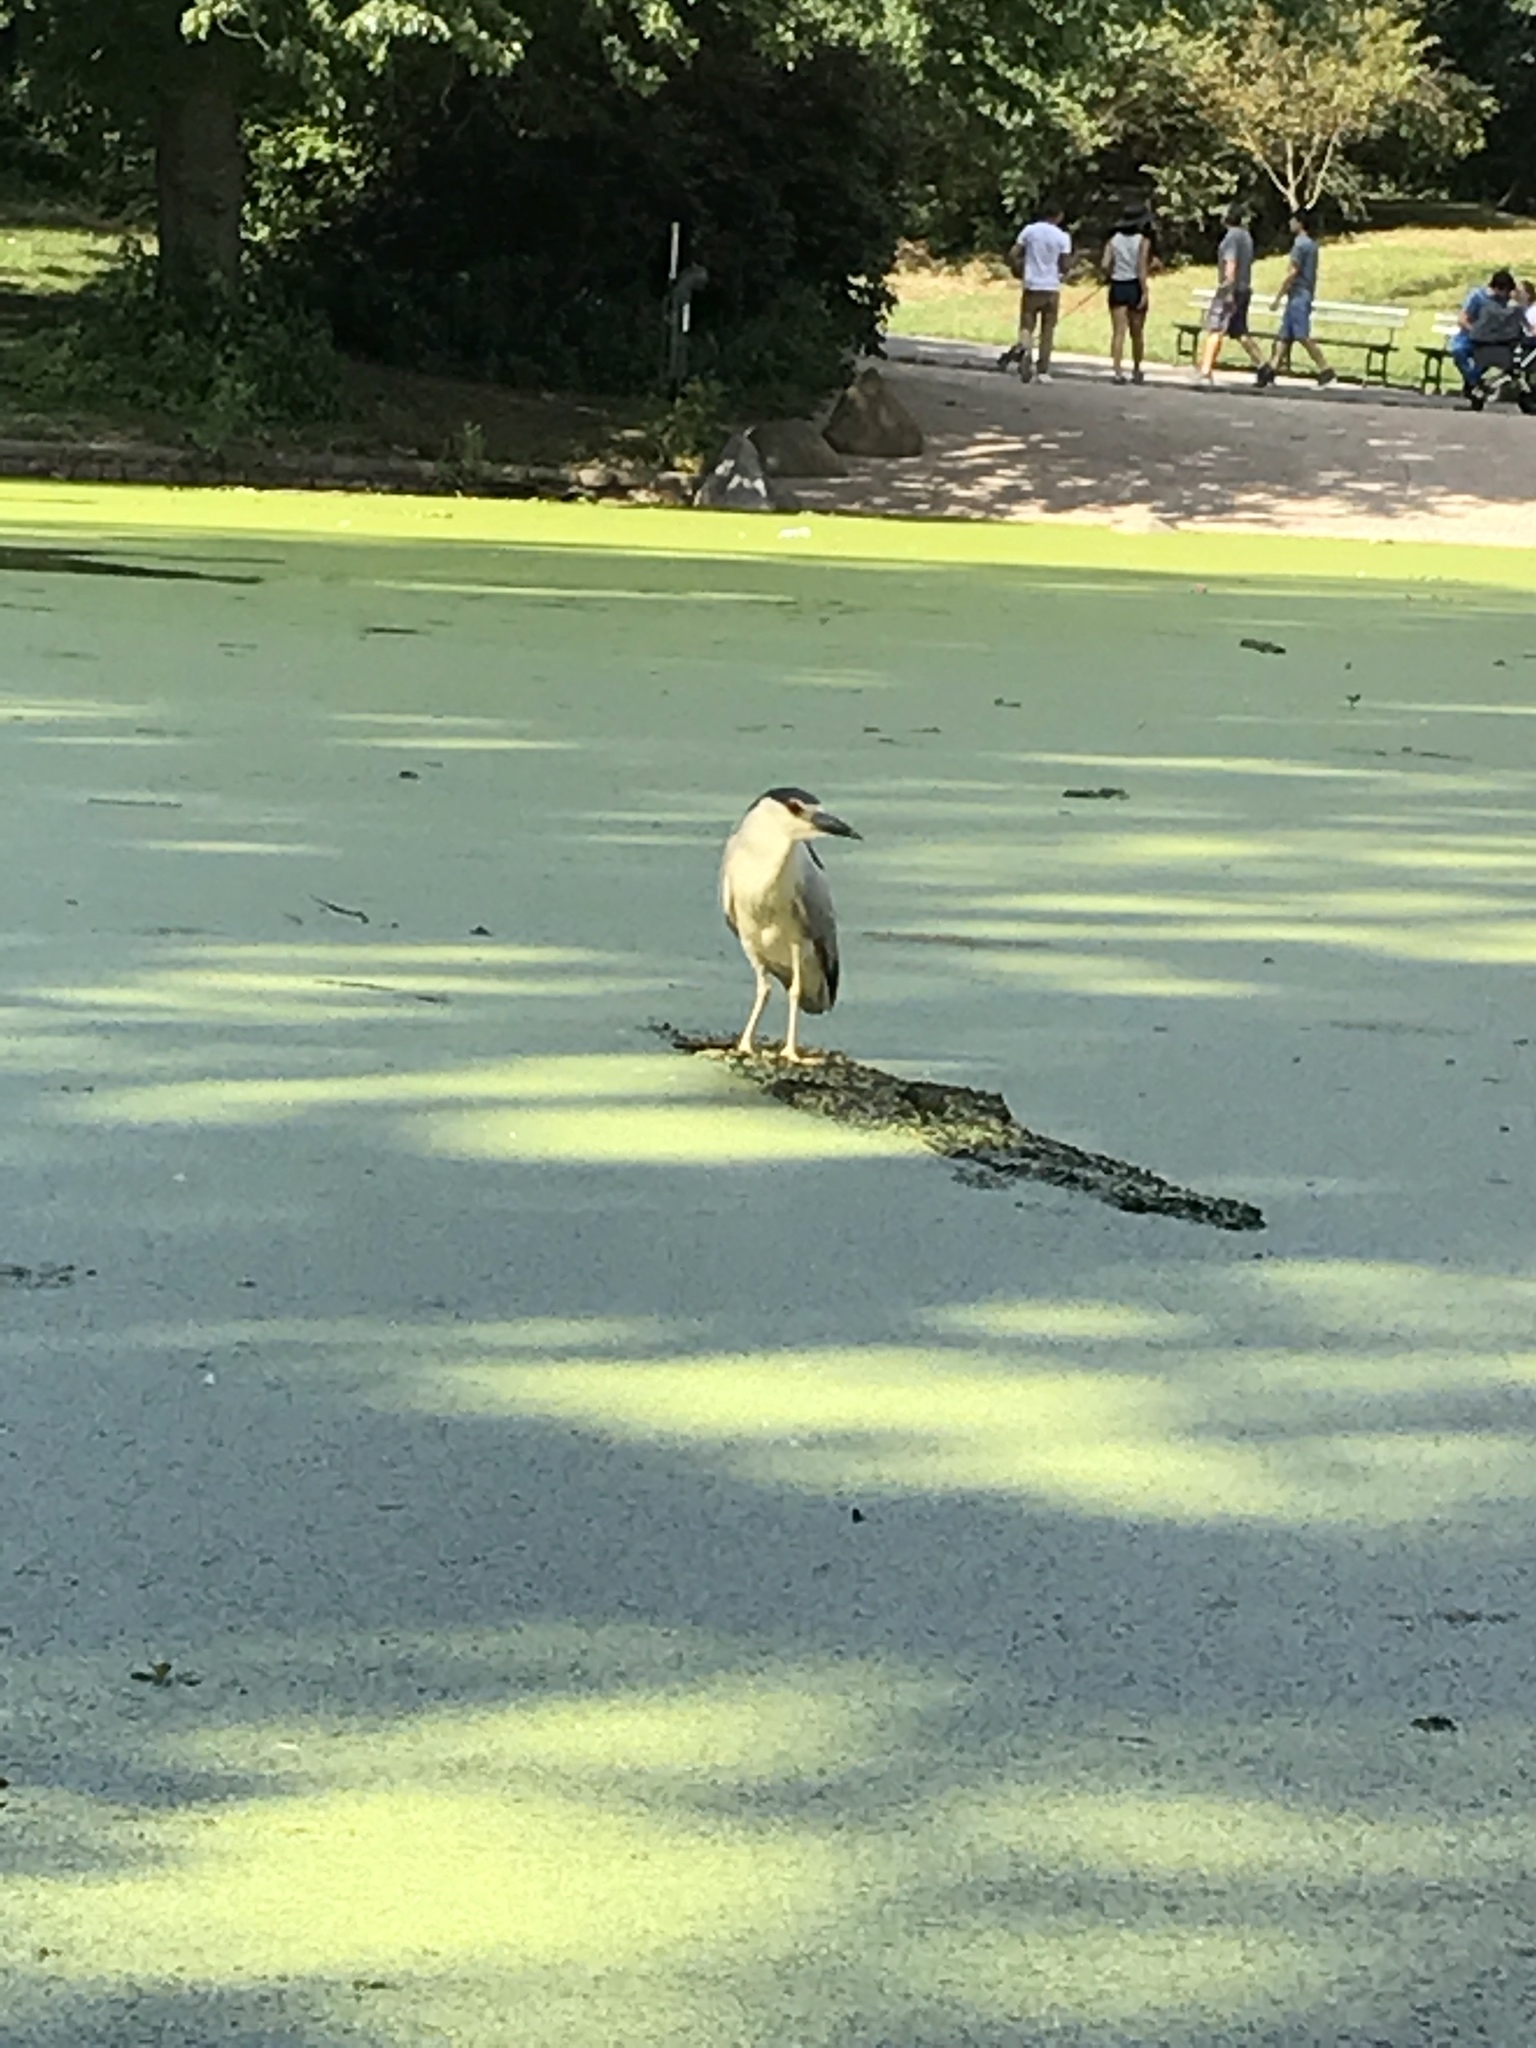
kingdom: Animalia
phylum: Chordata
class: Aves
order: Pelecaniformes
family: Ardeidae
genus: Nycticorax
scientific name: Nycticorax nycticorax
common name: Black-crowned night heron
